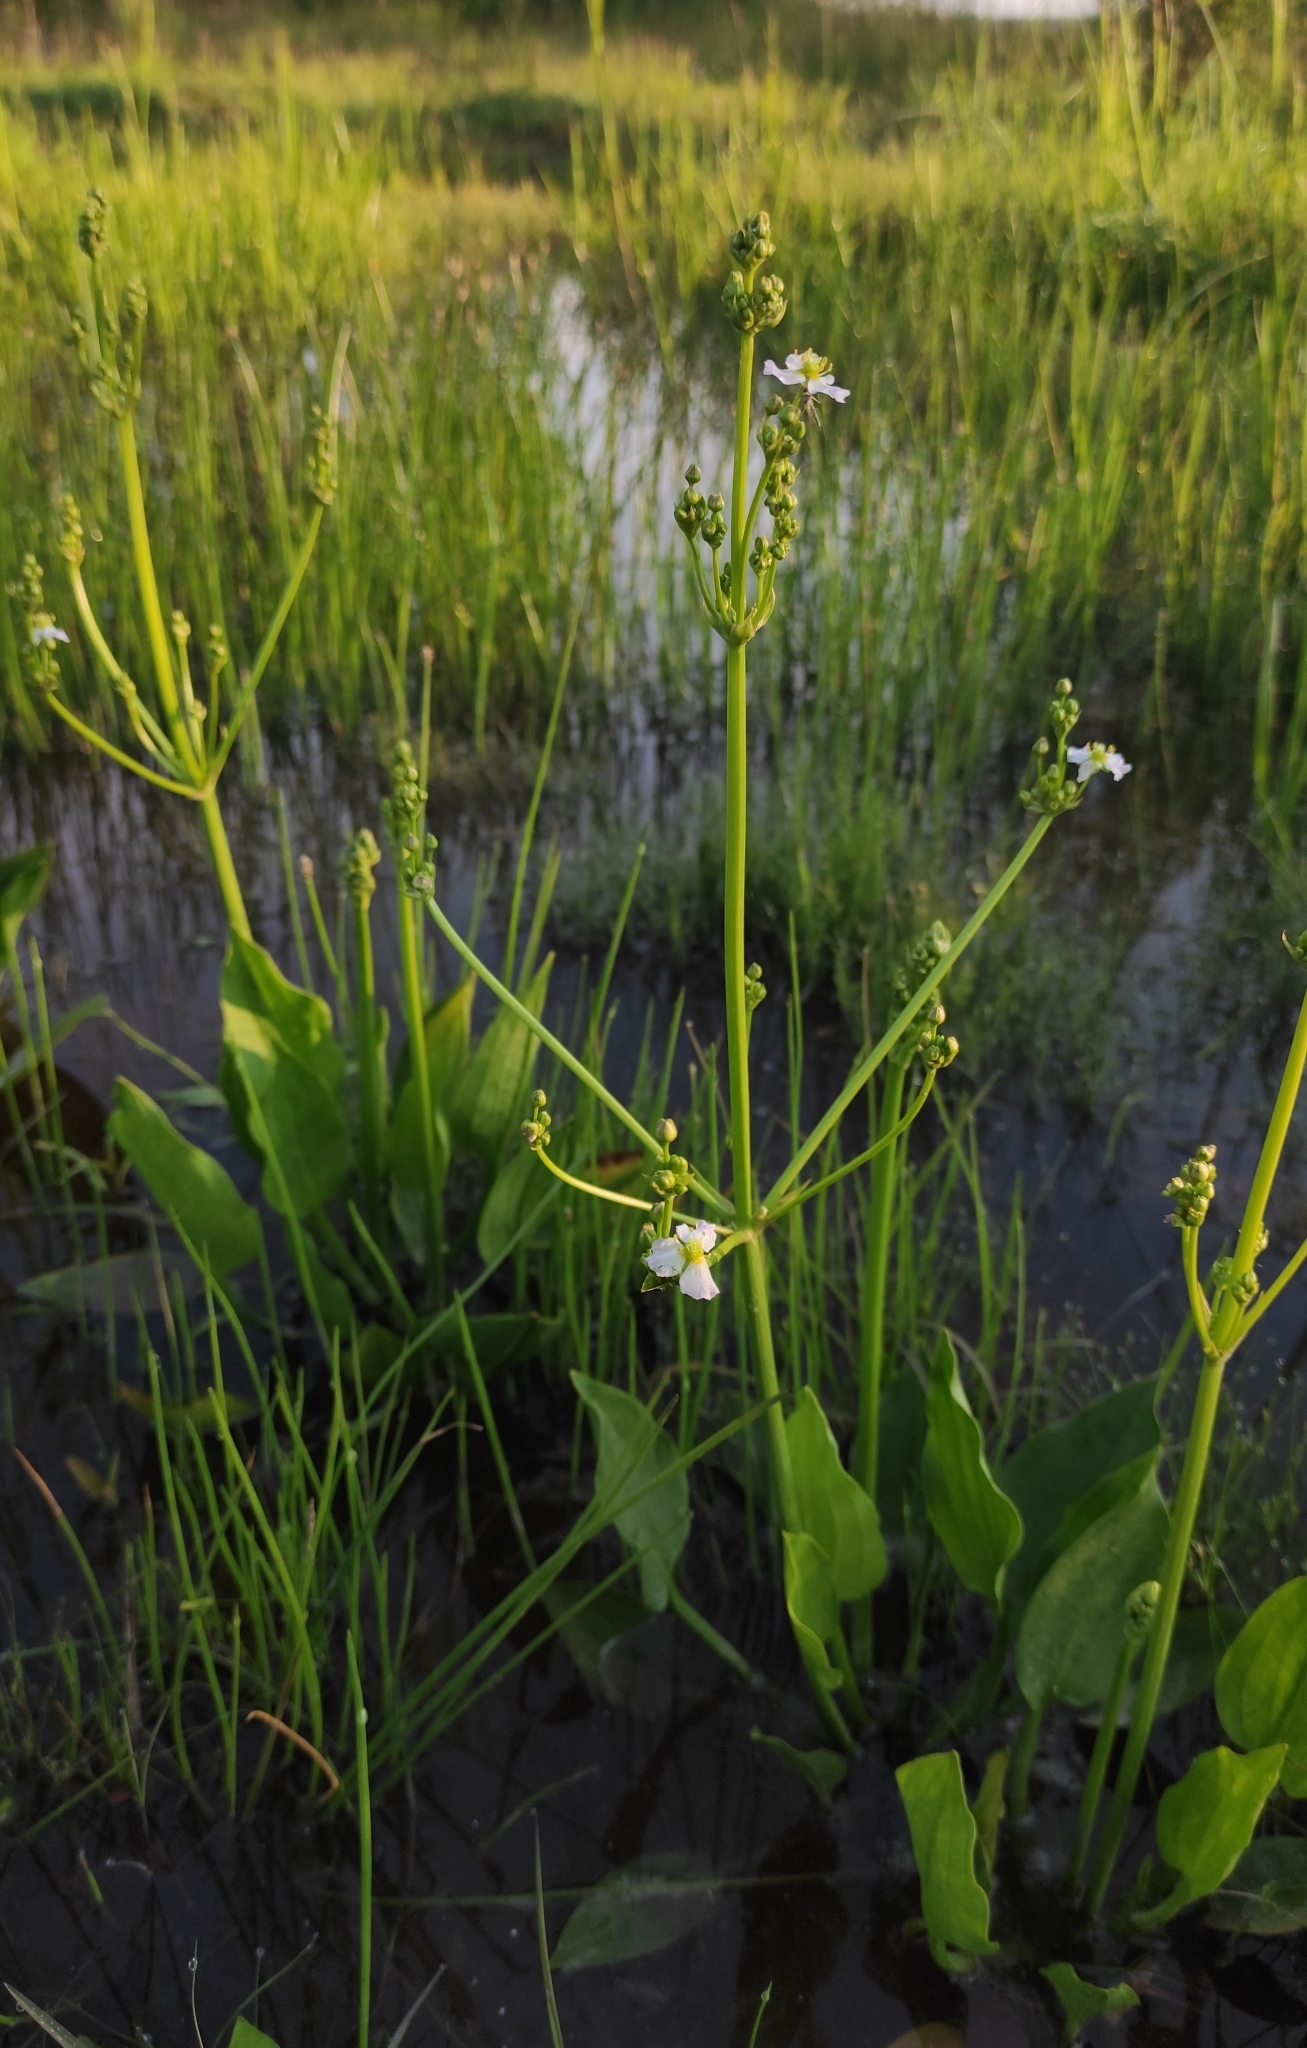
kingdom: Plantae
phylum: Tracheophyta
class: Liliopsida
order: Alismatales
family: Alismataceae
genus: Alisma
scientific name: Alisma plantago-aquatica
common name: Water-plantain
